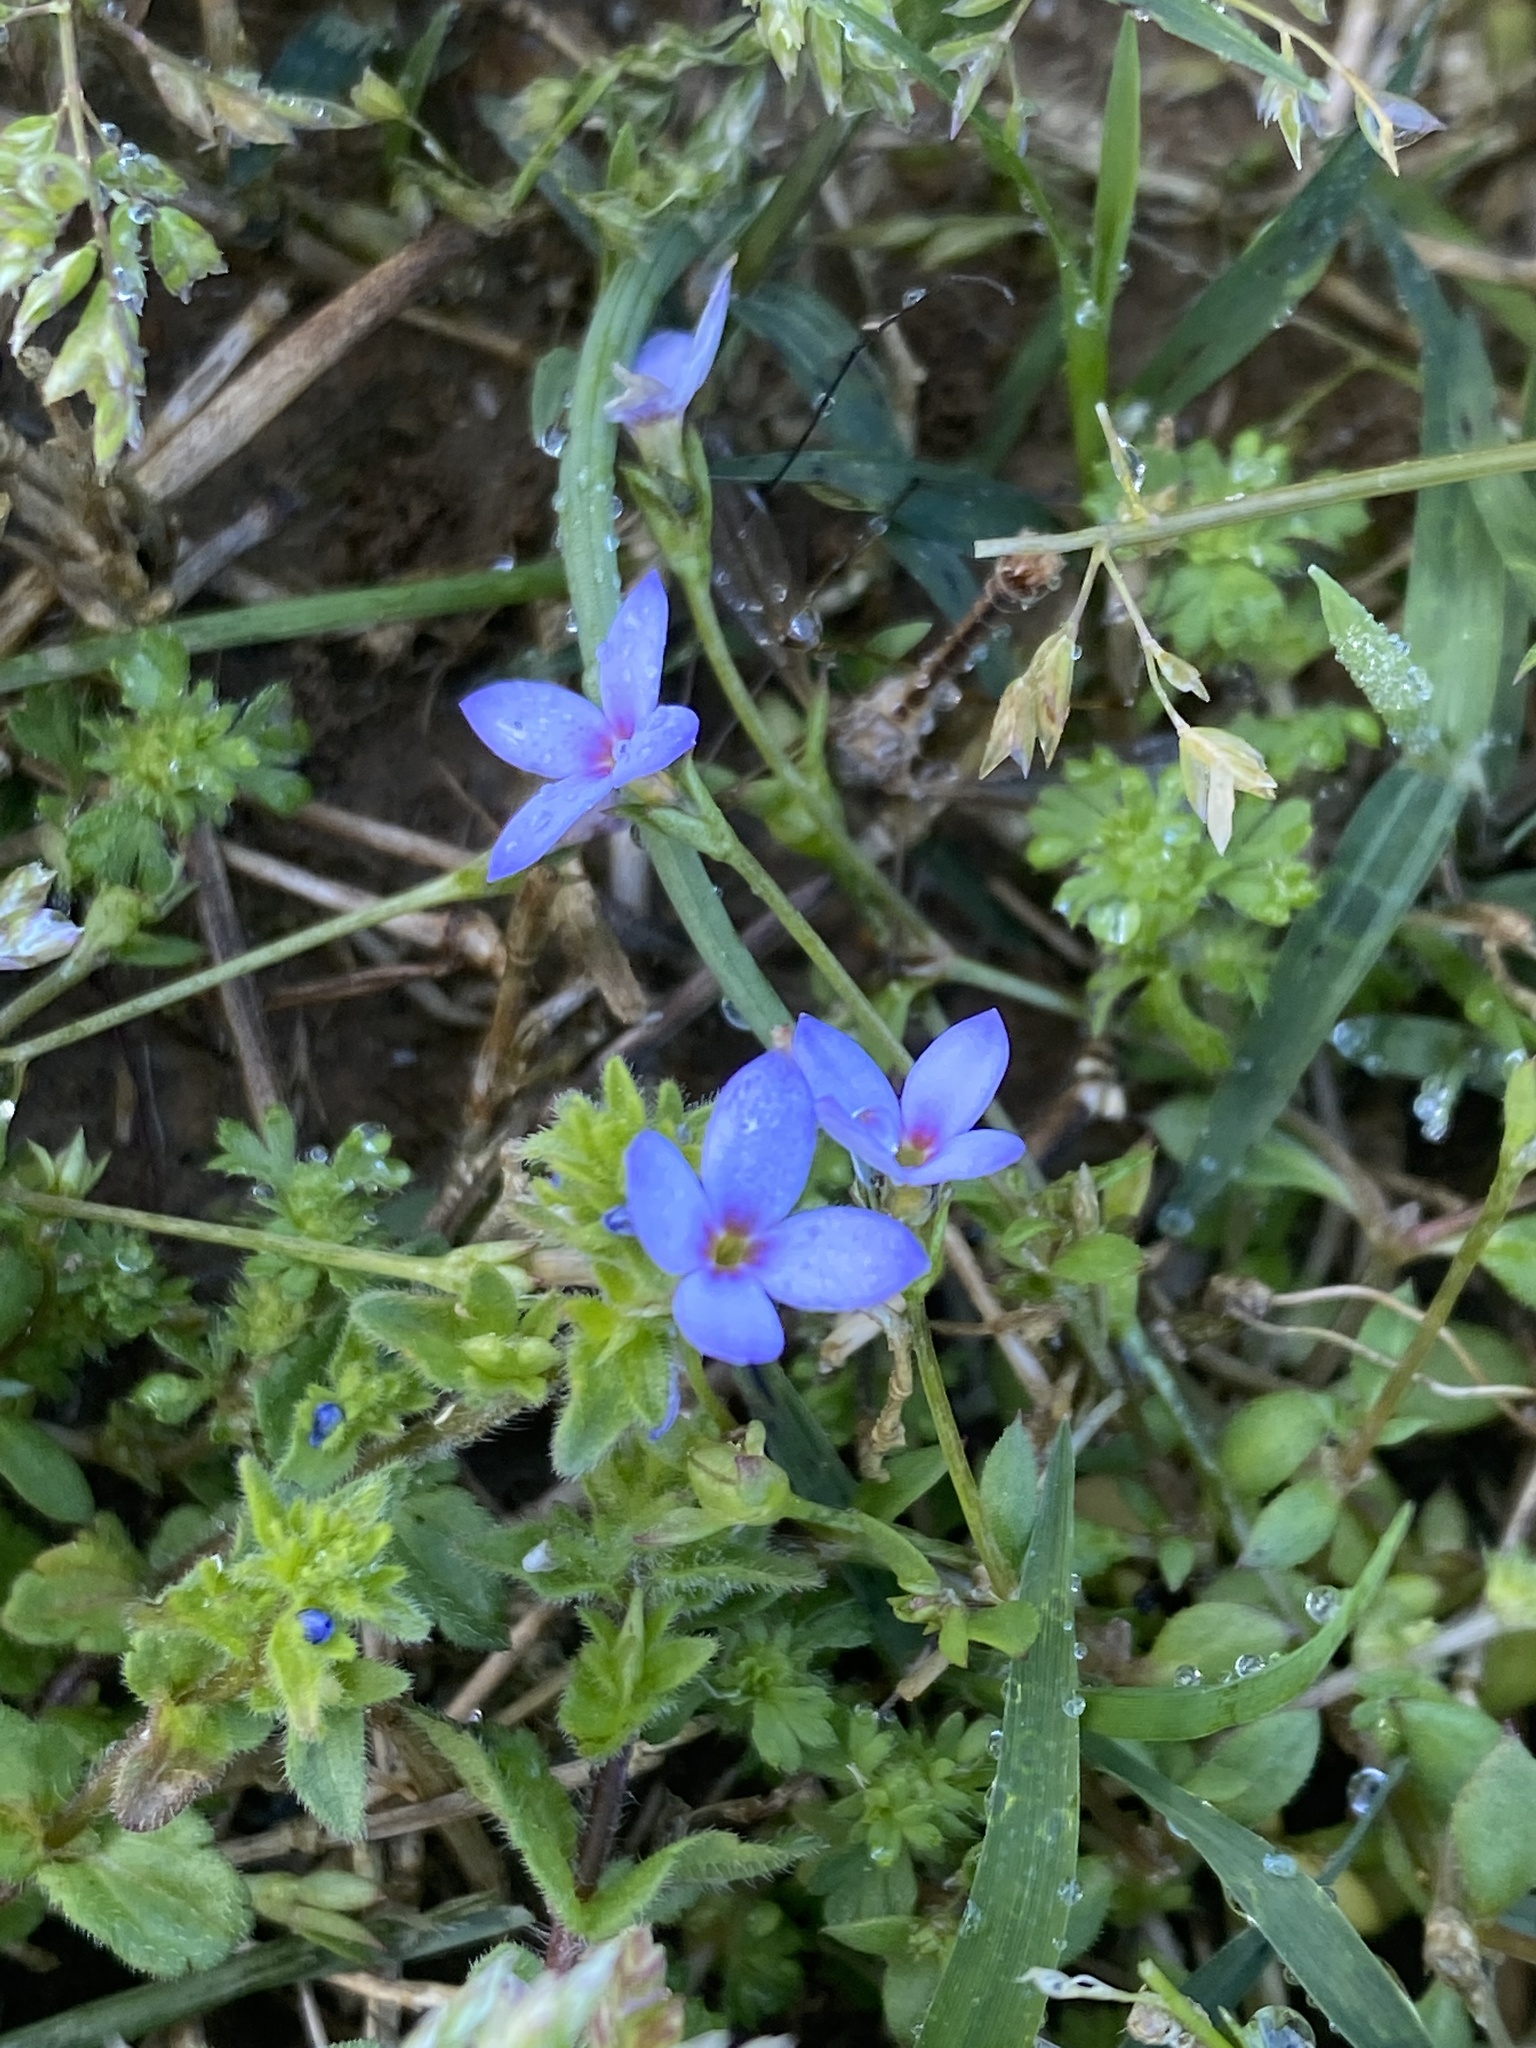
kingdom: Plantae
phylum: Tracheophyta
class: Magnoliopsida
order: Gentianales
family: Rubiaceae
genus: Houstonia
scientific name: Houstonia pusilla
